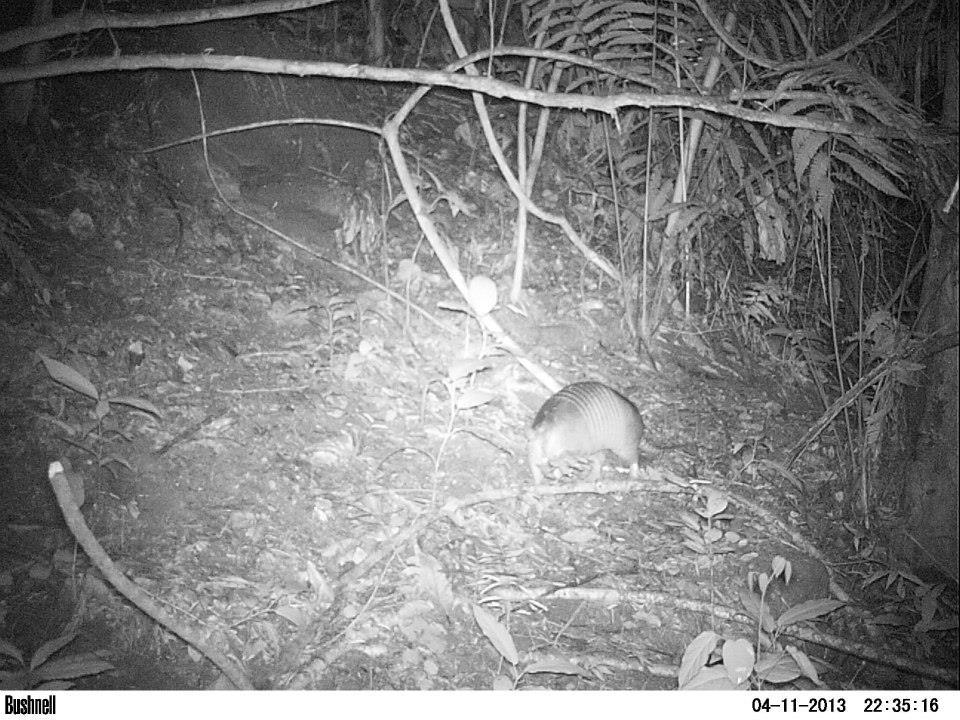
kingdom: Animalia
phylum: Chordata
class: Mammalia
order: Cingulata
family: Dasypodidae
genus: Dasypus
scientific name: Dasypus novemcinctus
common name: Nine-banded armadillo
